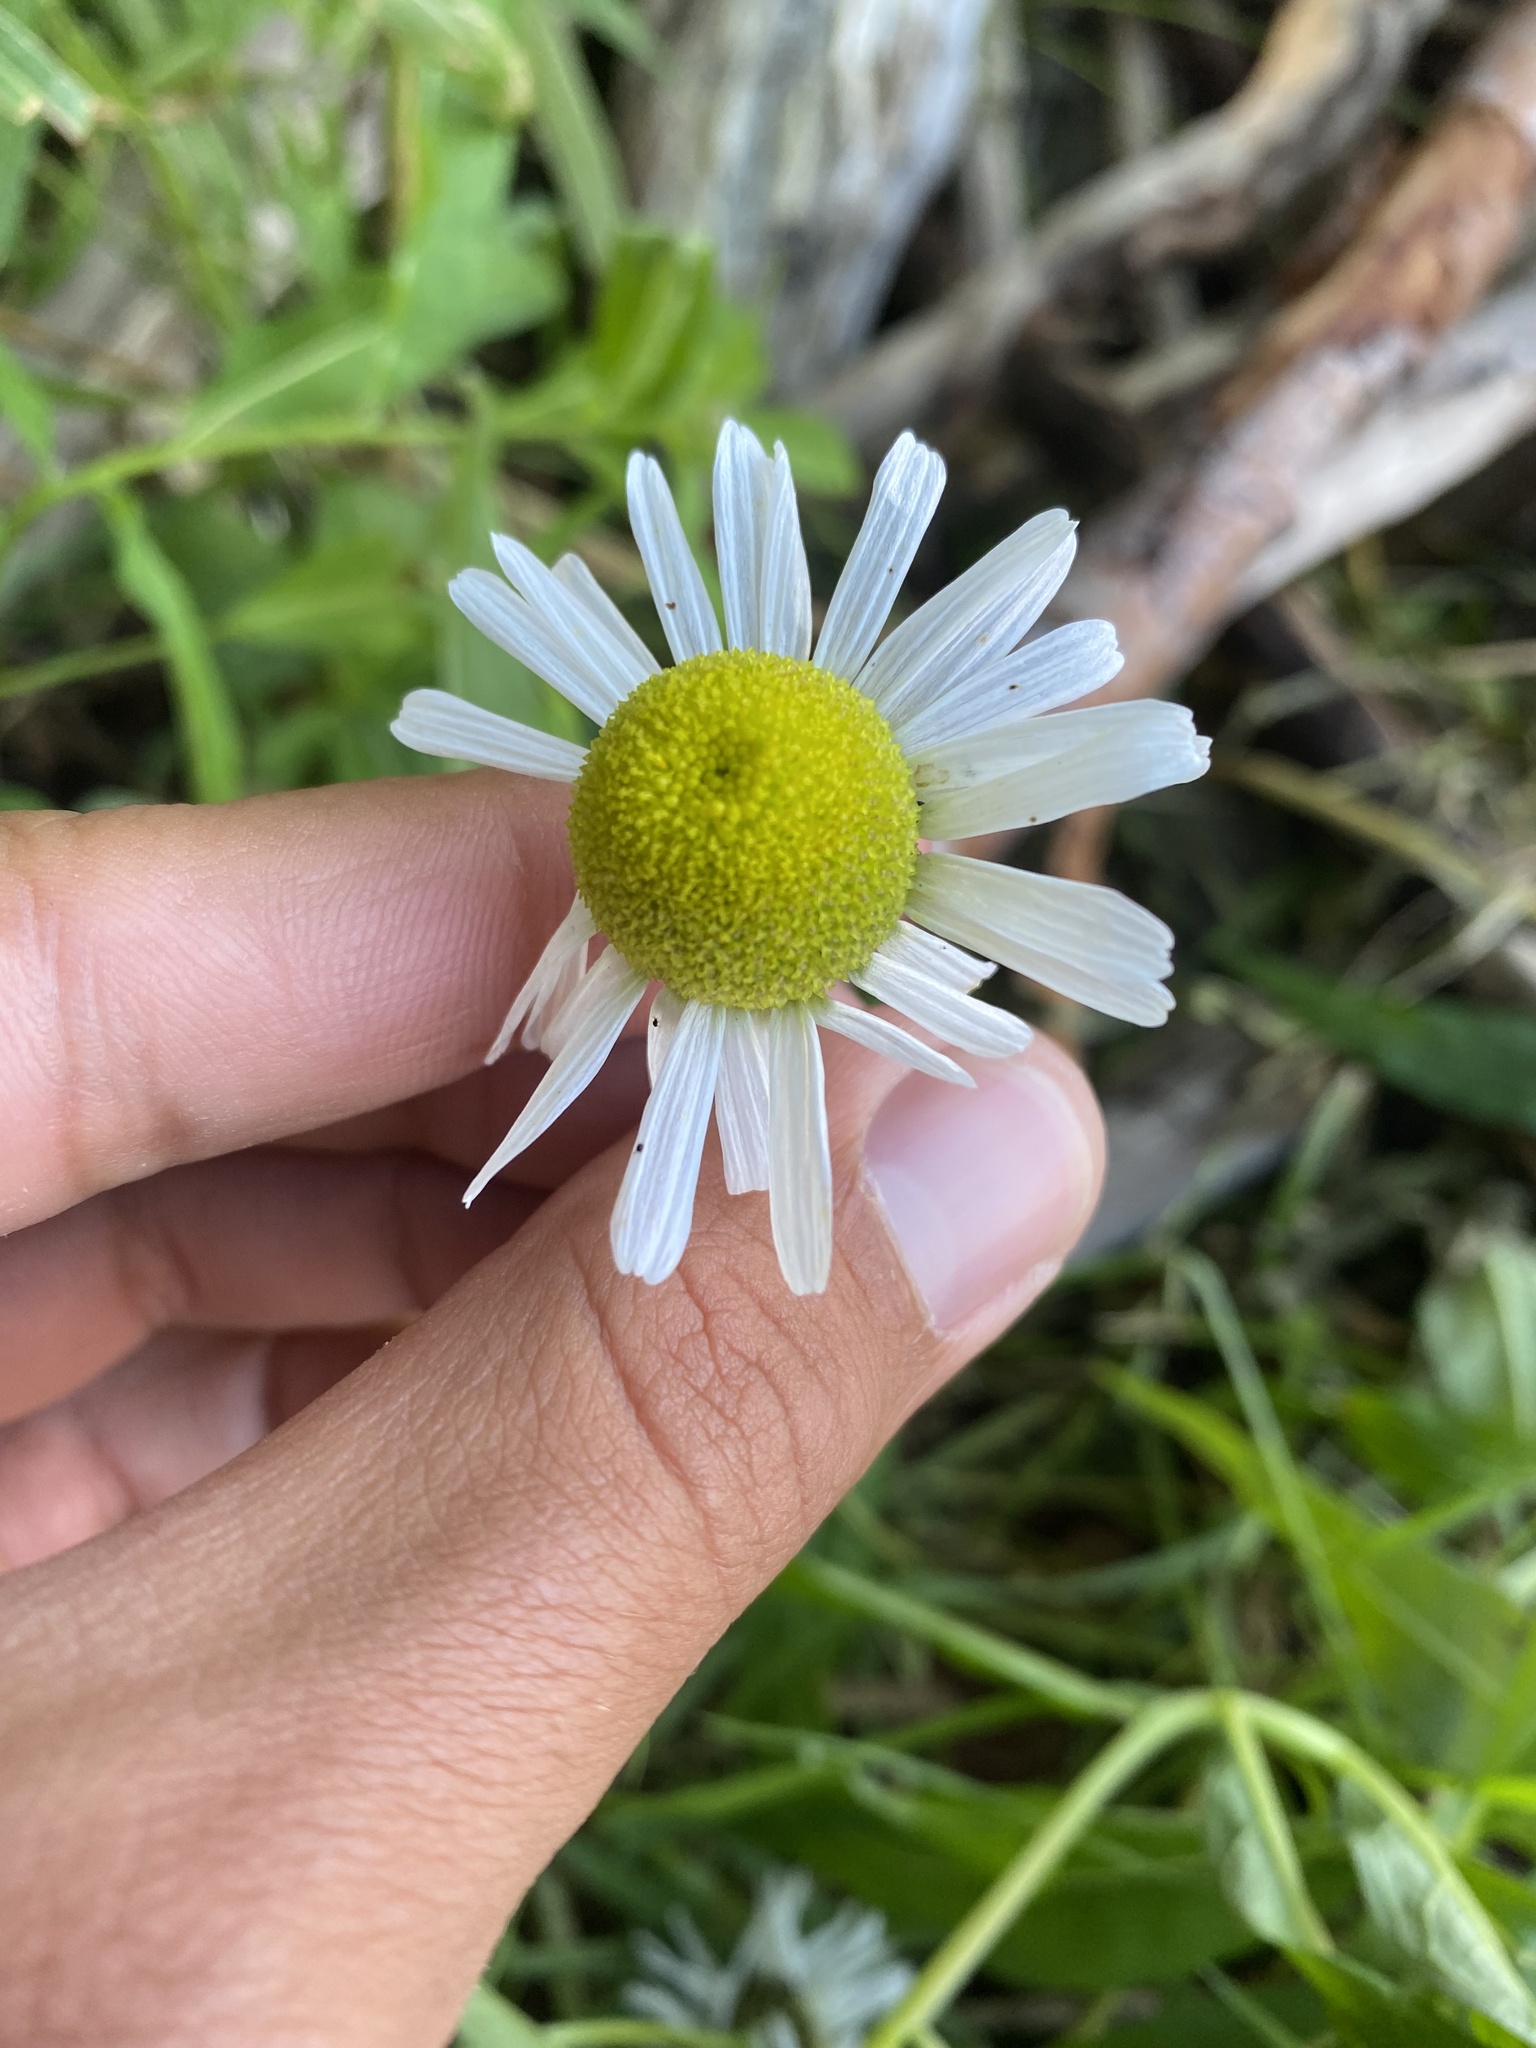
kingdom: Plantae
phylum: Tracheophyta
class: Magnoliopsida
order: Asterales
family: Asteraceae
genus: Tripleurospermum
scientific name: Tripleurospermum hookeri
